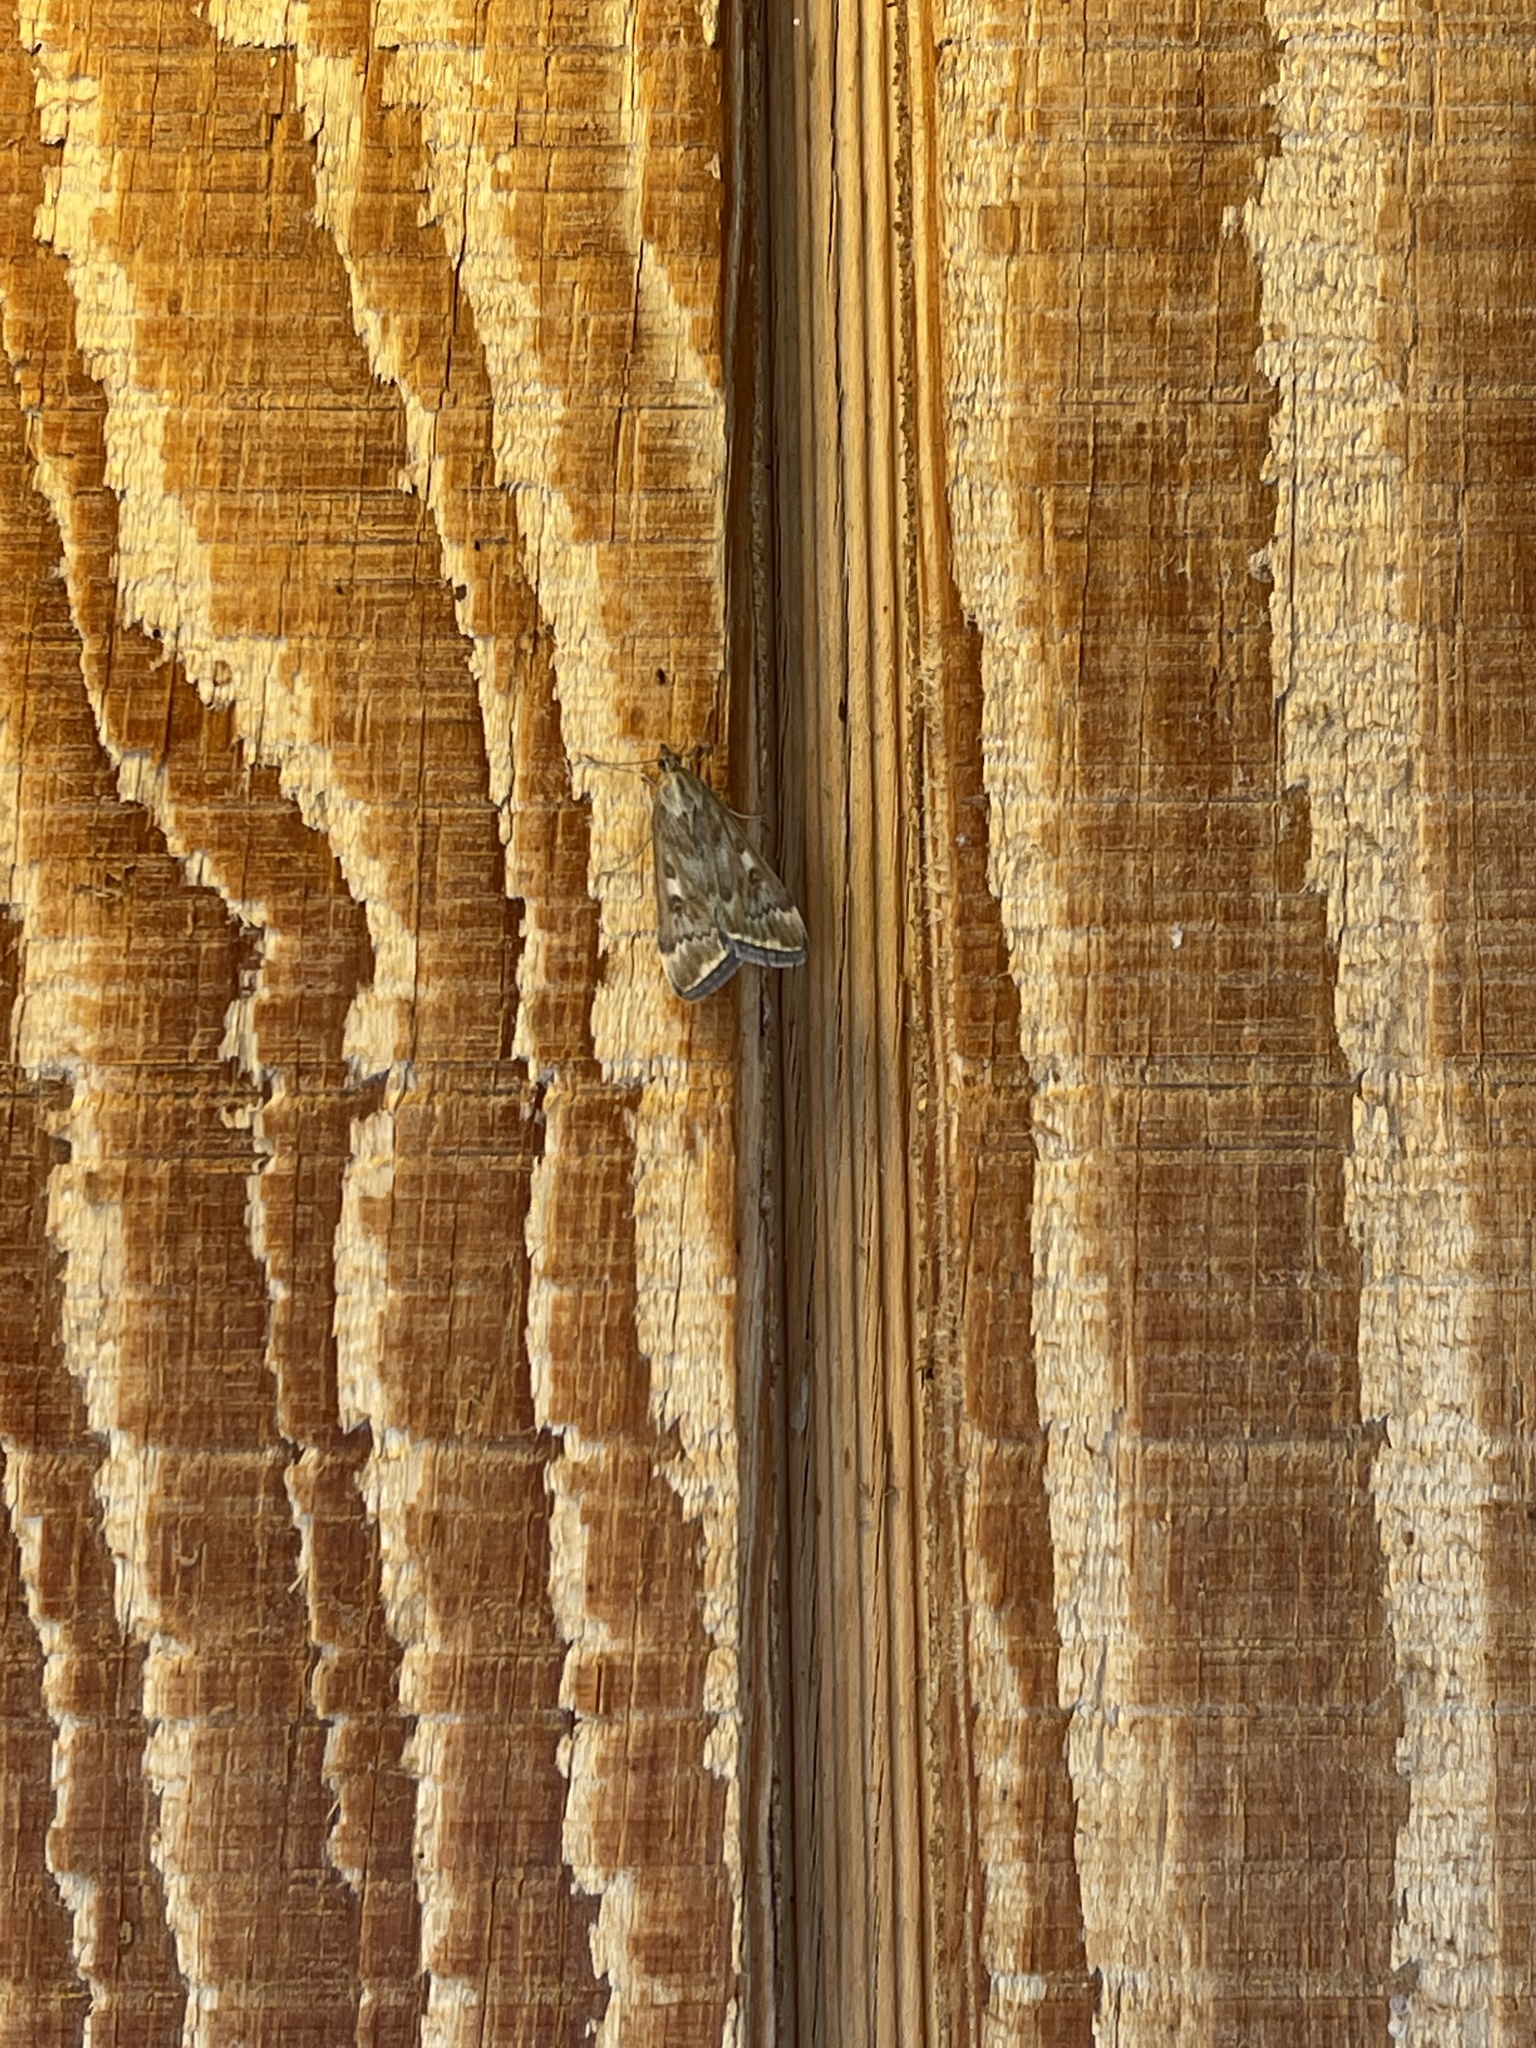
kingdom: Animalia
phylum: Arthropoda
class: Insecta
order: Lepidoptera
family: Crambidae
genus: Loxostege
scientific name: Loxostege cereralis
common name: Alfalfa webworm moth
